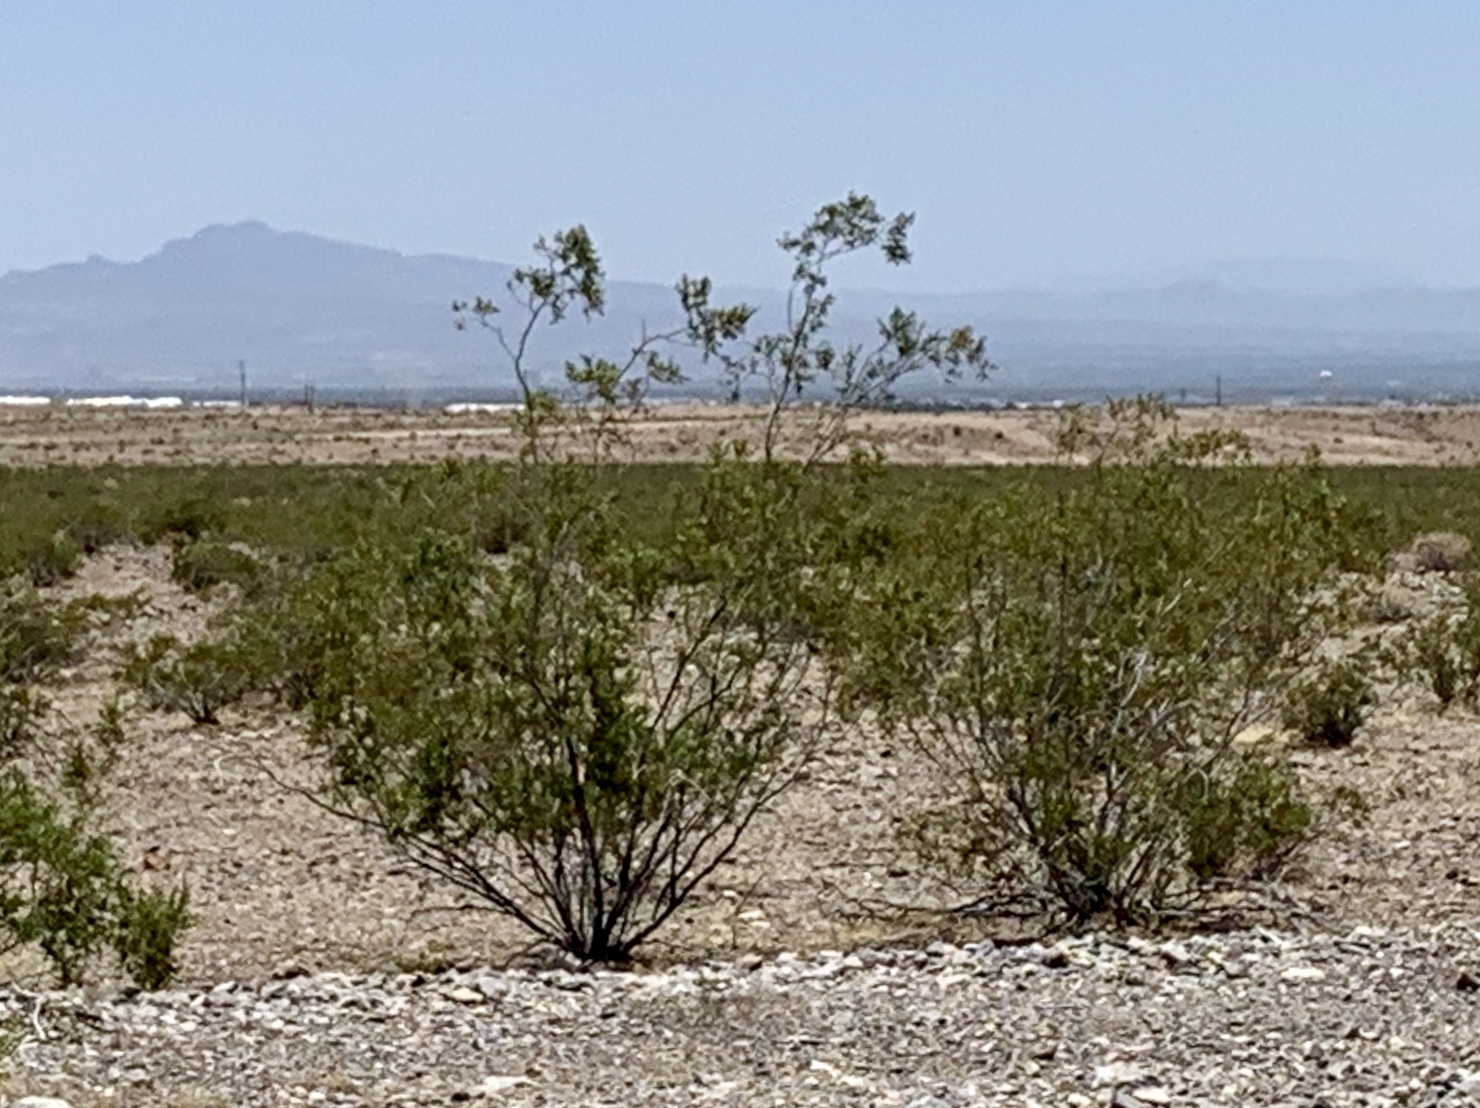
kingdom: Plantae
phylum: Tracheophyta
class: Magnoliopsida
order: Zygophyllales
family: Zygophyllaceae
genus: Larrea
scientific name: Larrea tridentata
